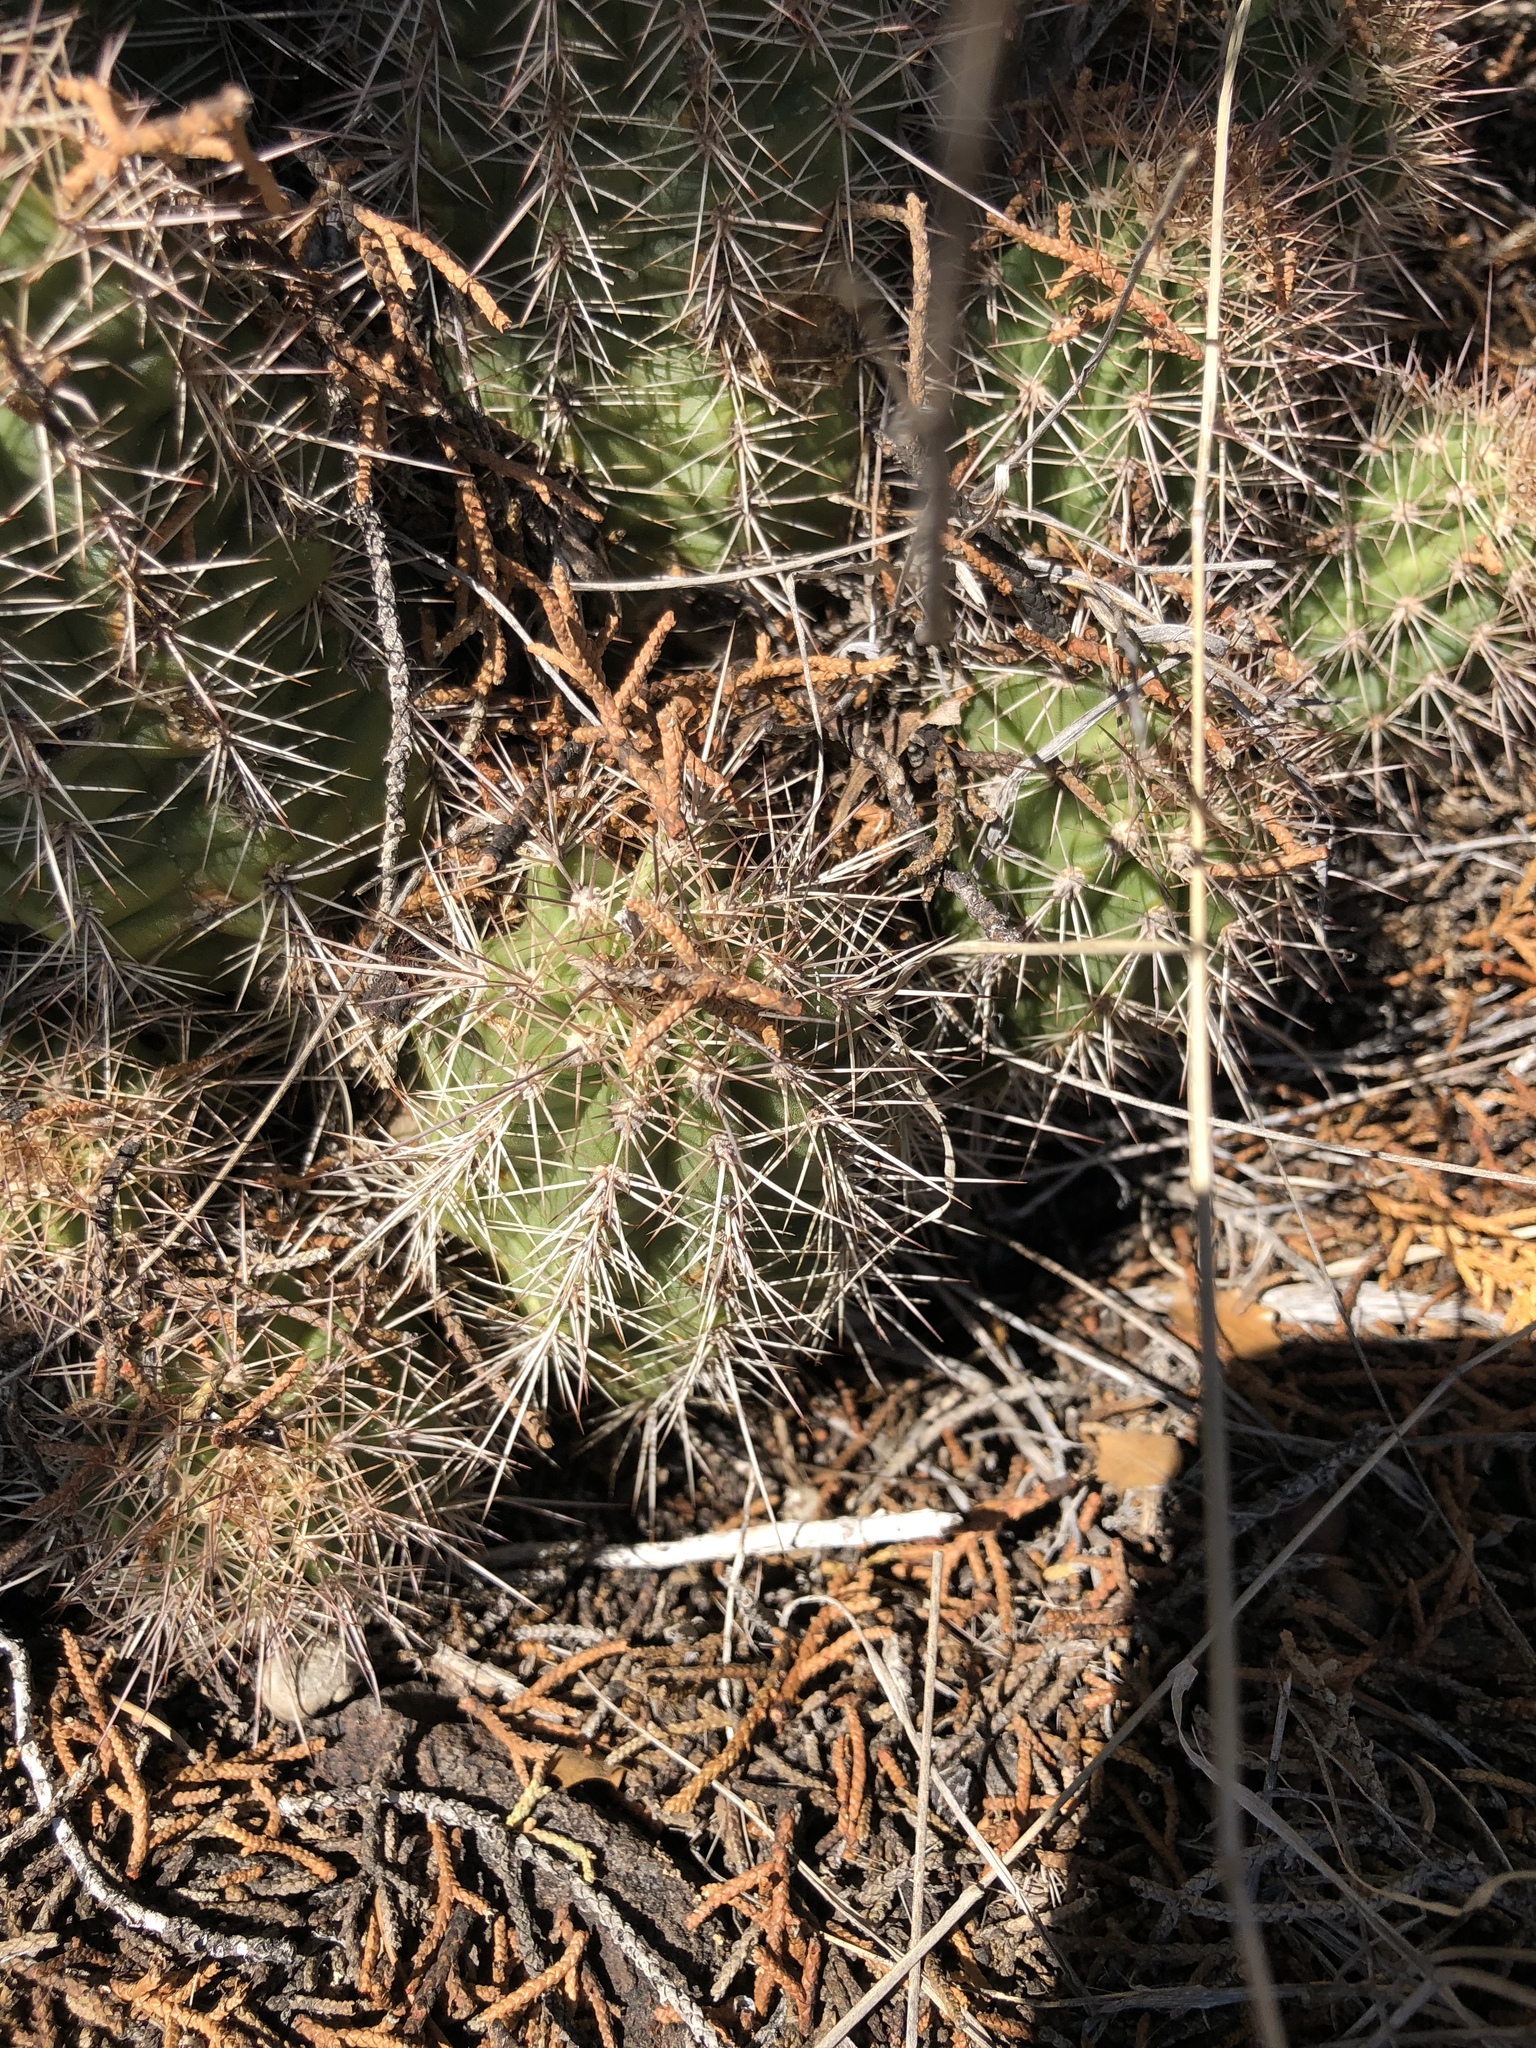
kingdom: Plantae
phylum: Tracheophyta
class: Magnoliopsida
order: Caryophyllales
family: Cactaceae
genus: Echinocereus
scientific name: Echinocereus bakeri
